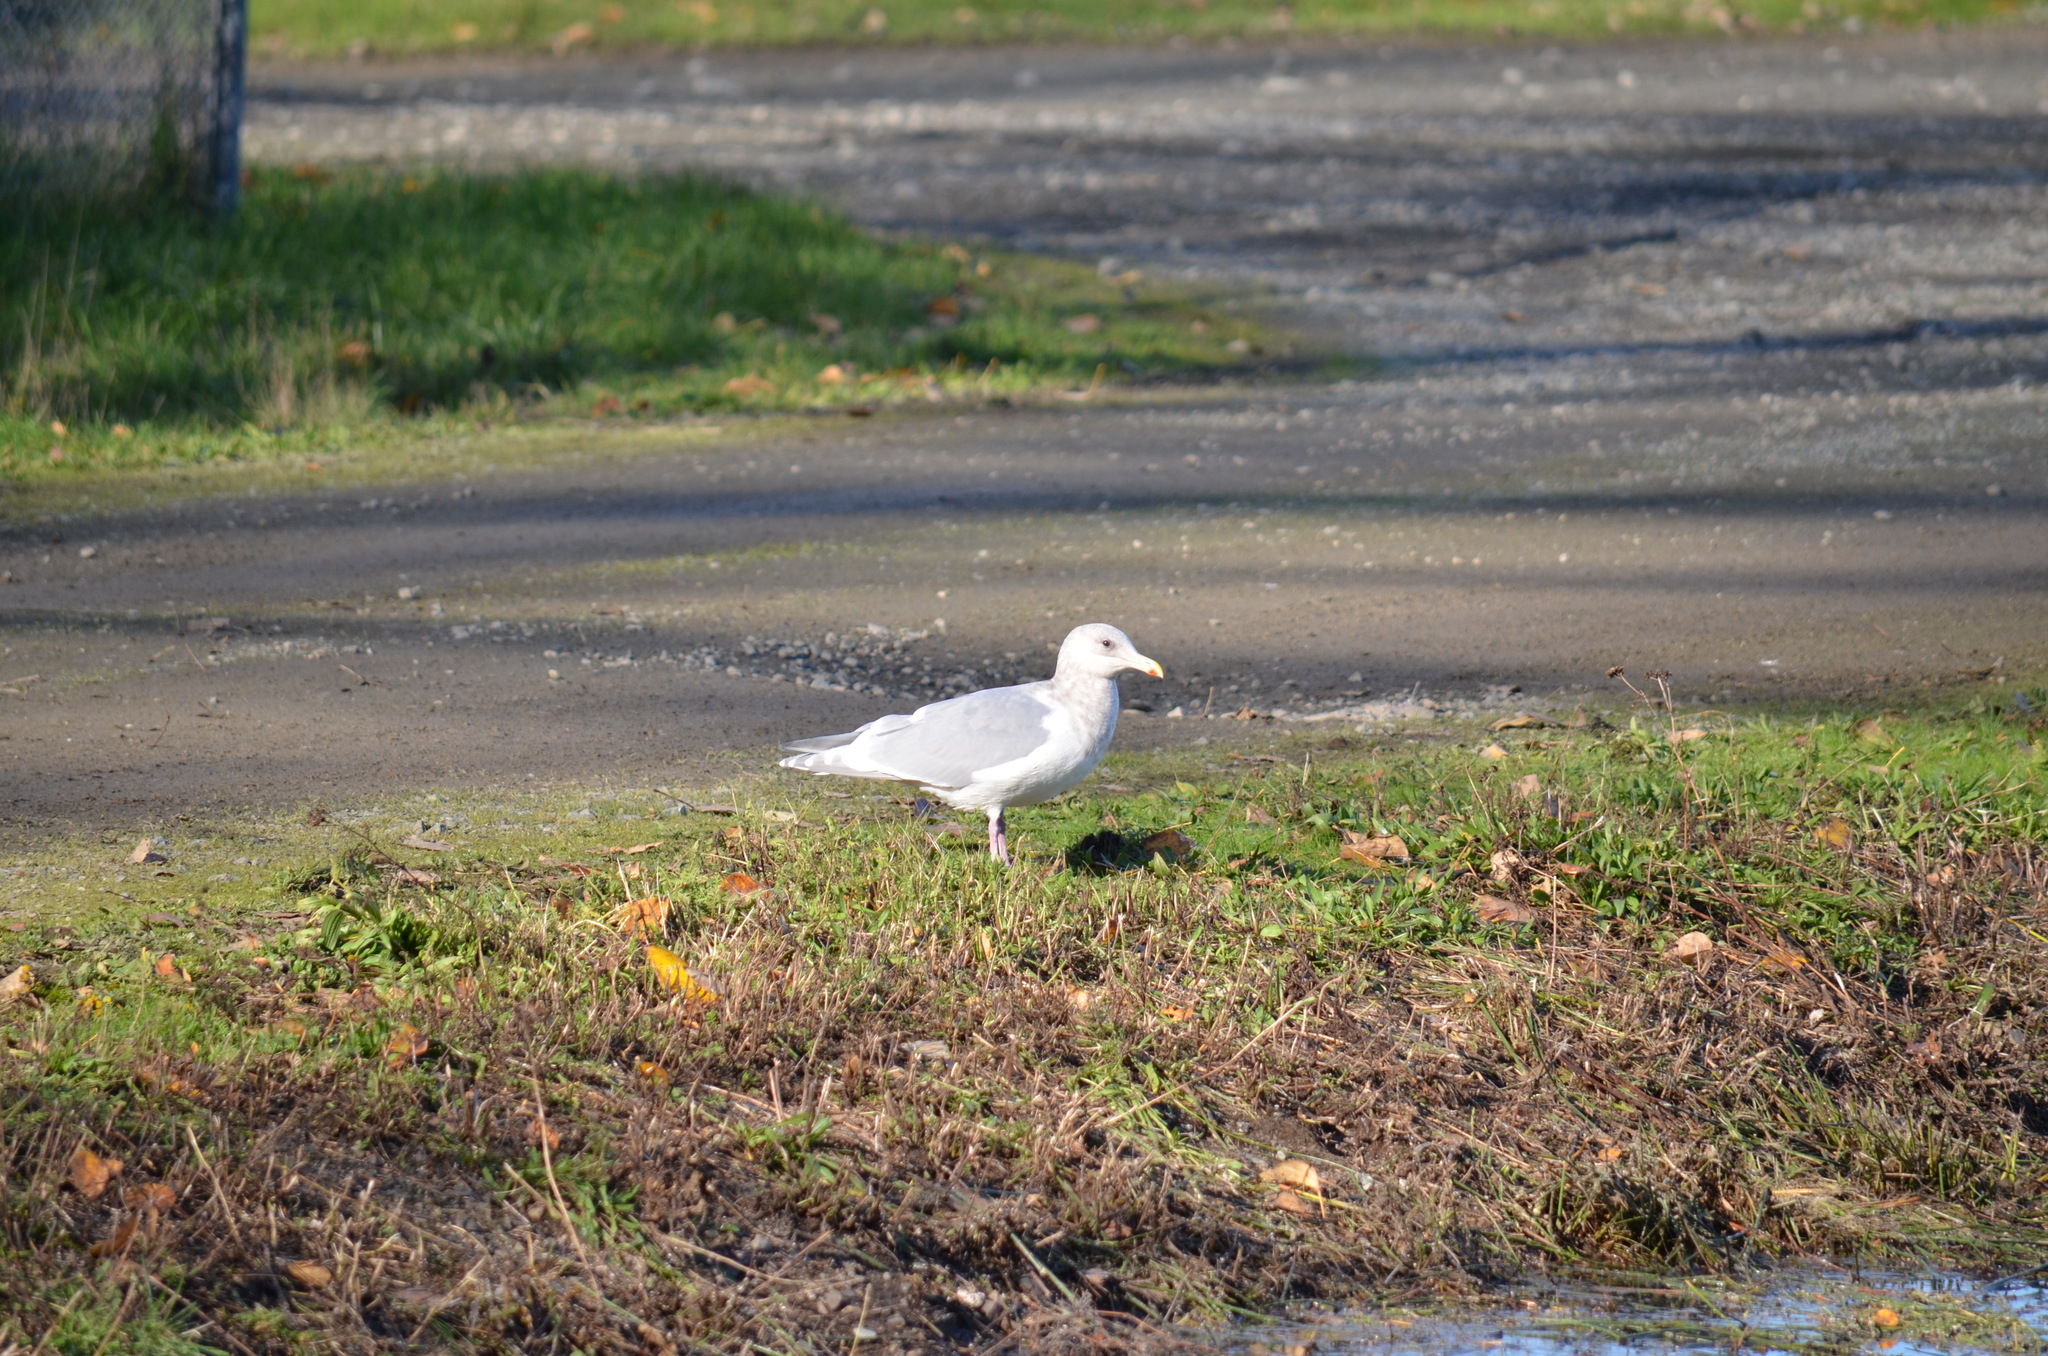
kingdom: Animalia
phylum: Chordata
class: Aves
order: Charadriiformes
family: Laridae
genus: Larus
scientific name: Larus glaucescens
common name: Glaucous-winged gull
